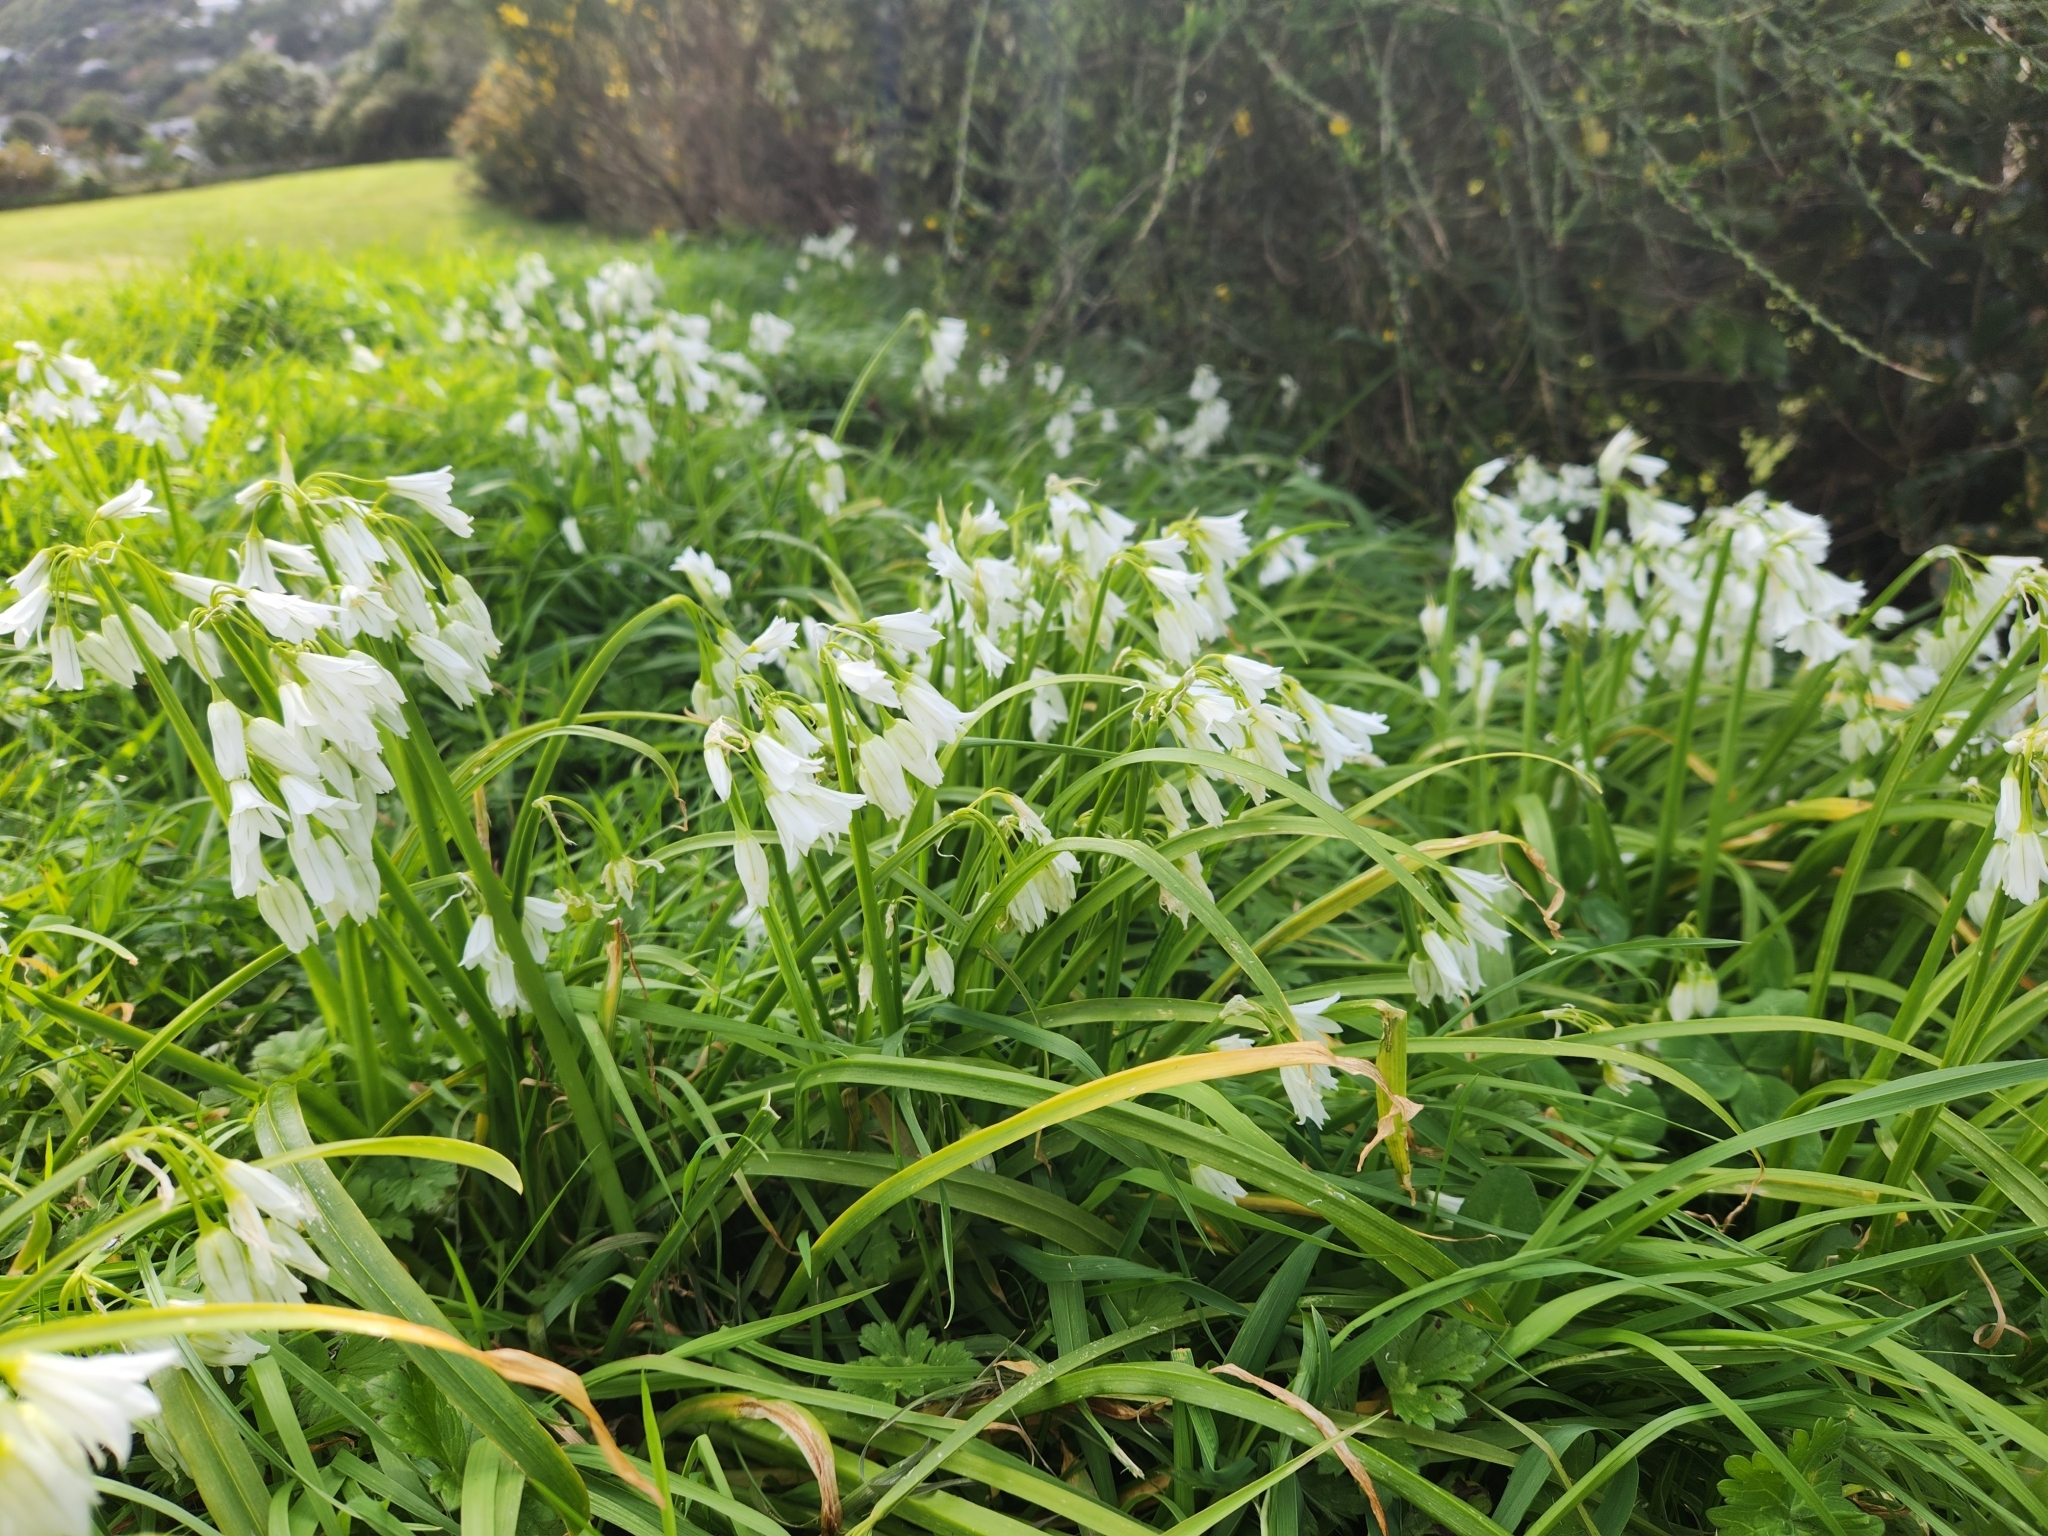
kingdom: Plantae
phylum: Tracheophyta
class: Liliopsida
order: Asparagales
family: Amaryllidaceae
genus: Allium
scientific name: Allium triquetrum
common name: Three-cornered garlic
